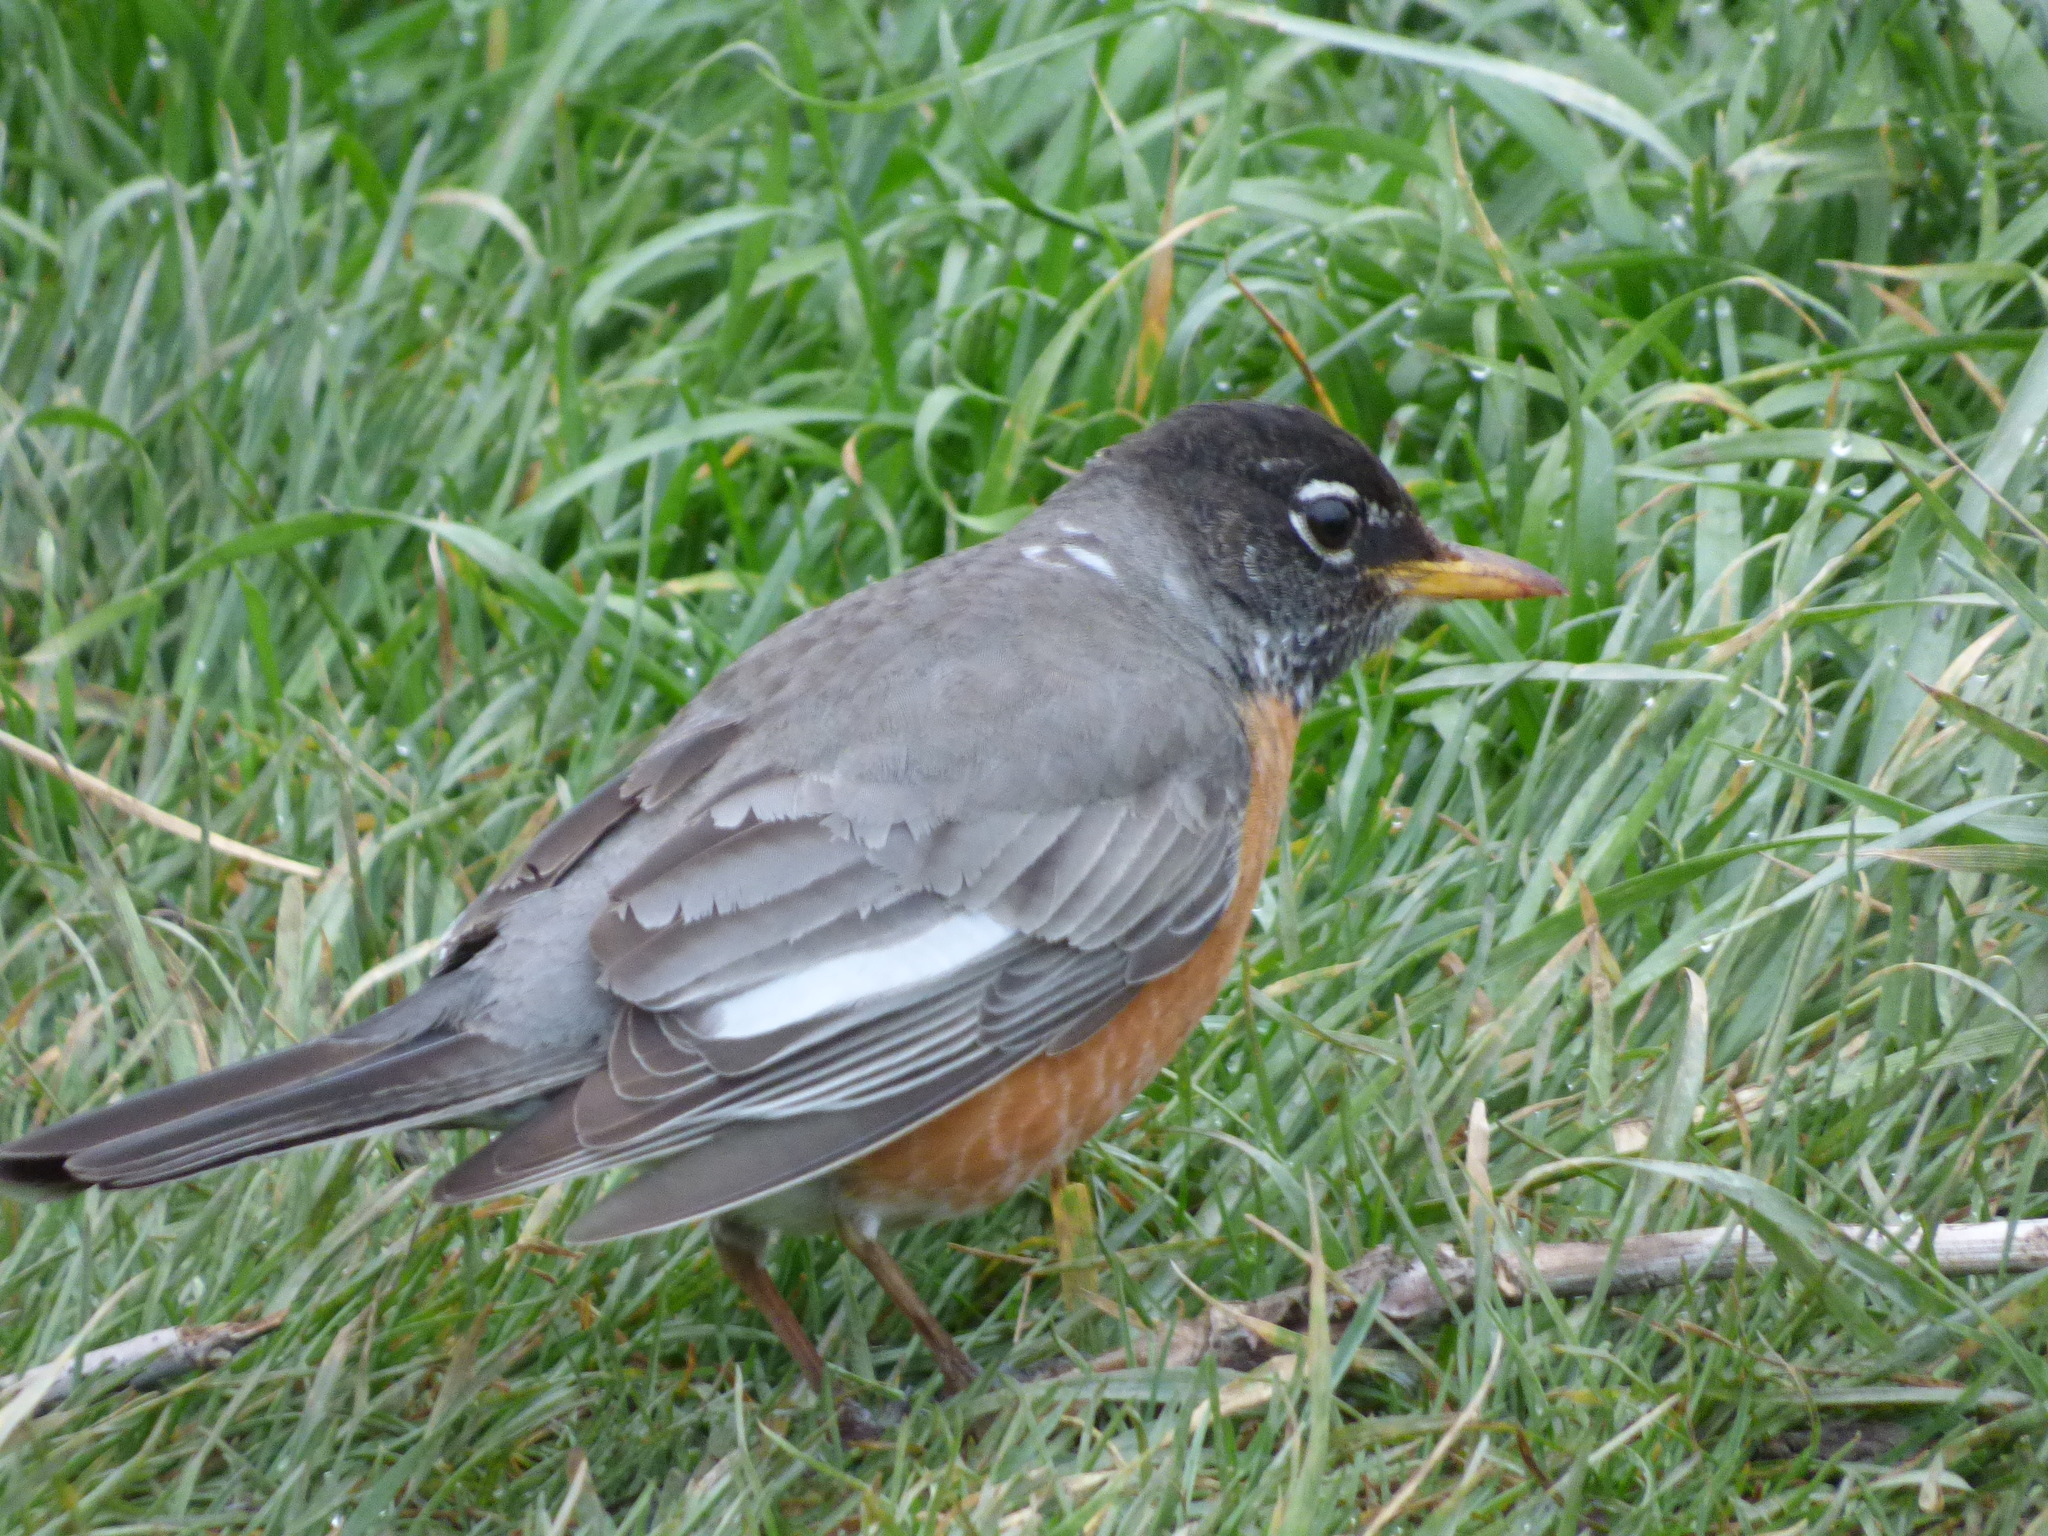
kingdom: Animalia
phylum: Chordata
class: Aves
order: Passeriformes
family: Turdidae
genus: Turdus
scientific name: Turdus migratorius
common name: American robin
